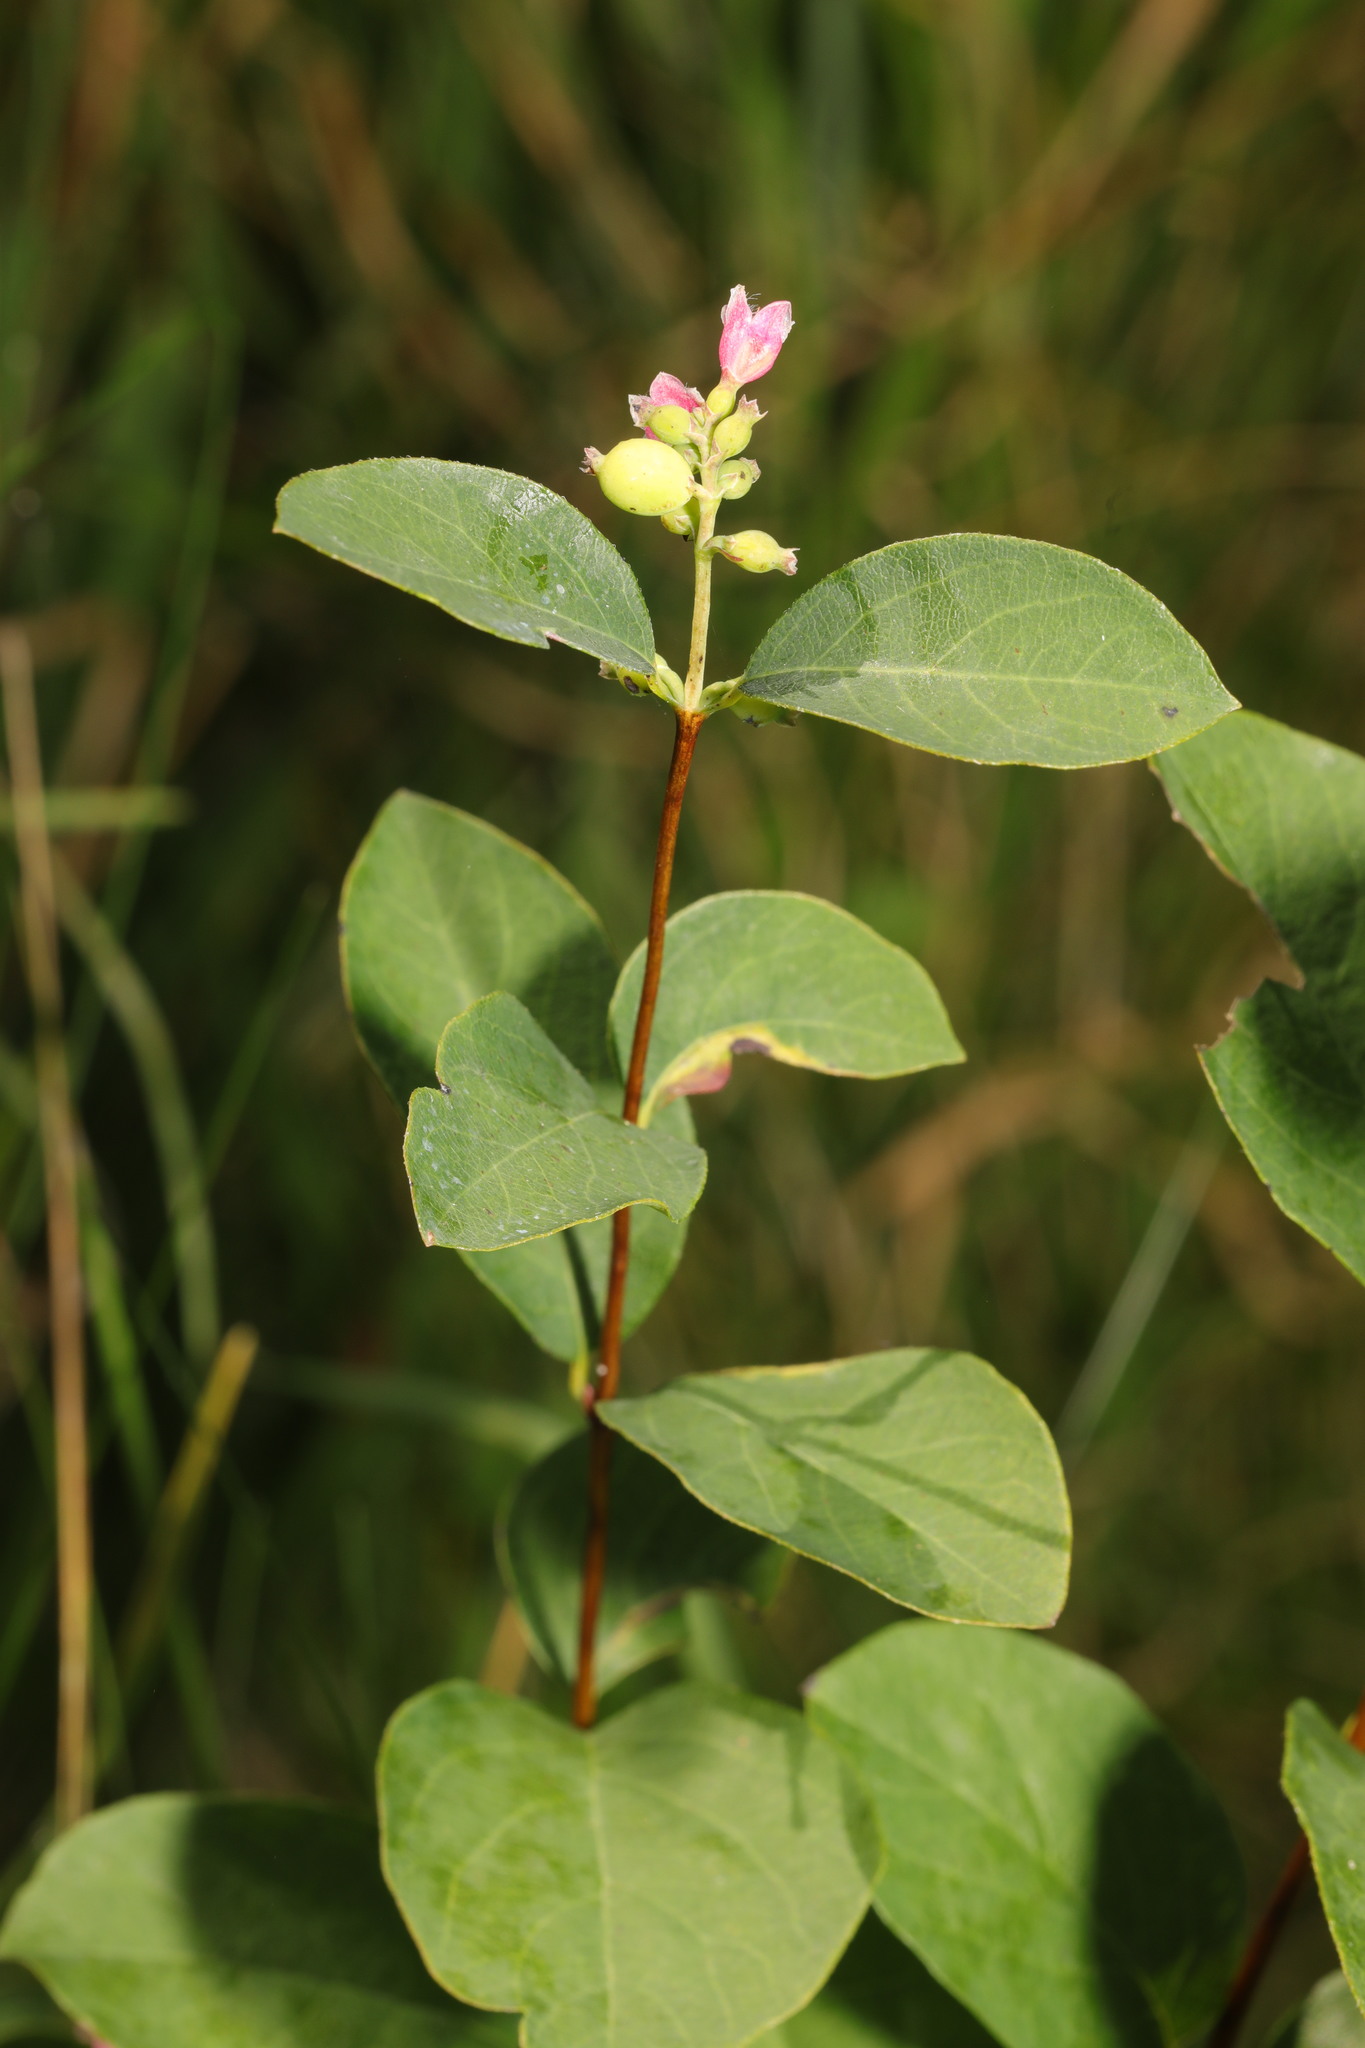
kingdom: Plantae
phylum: Tracheophyta
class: Magnoliopsida
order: Dipsacales
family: Caprifoliaceae
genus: Symphoricarpos
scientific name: Symphoricarpos albus
